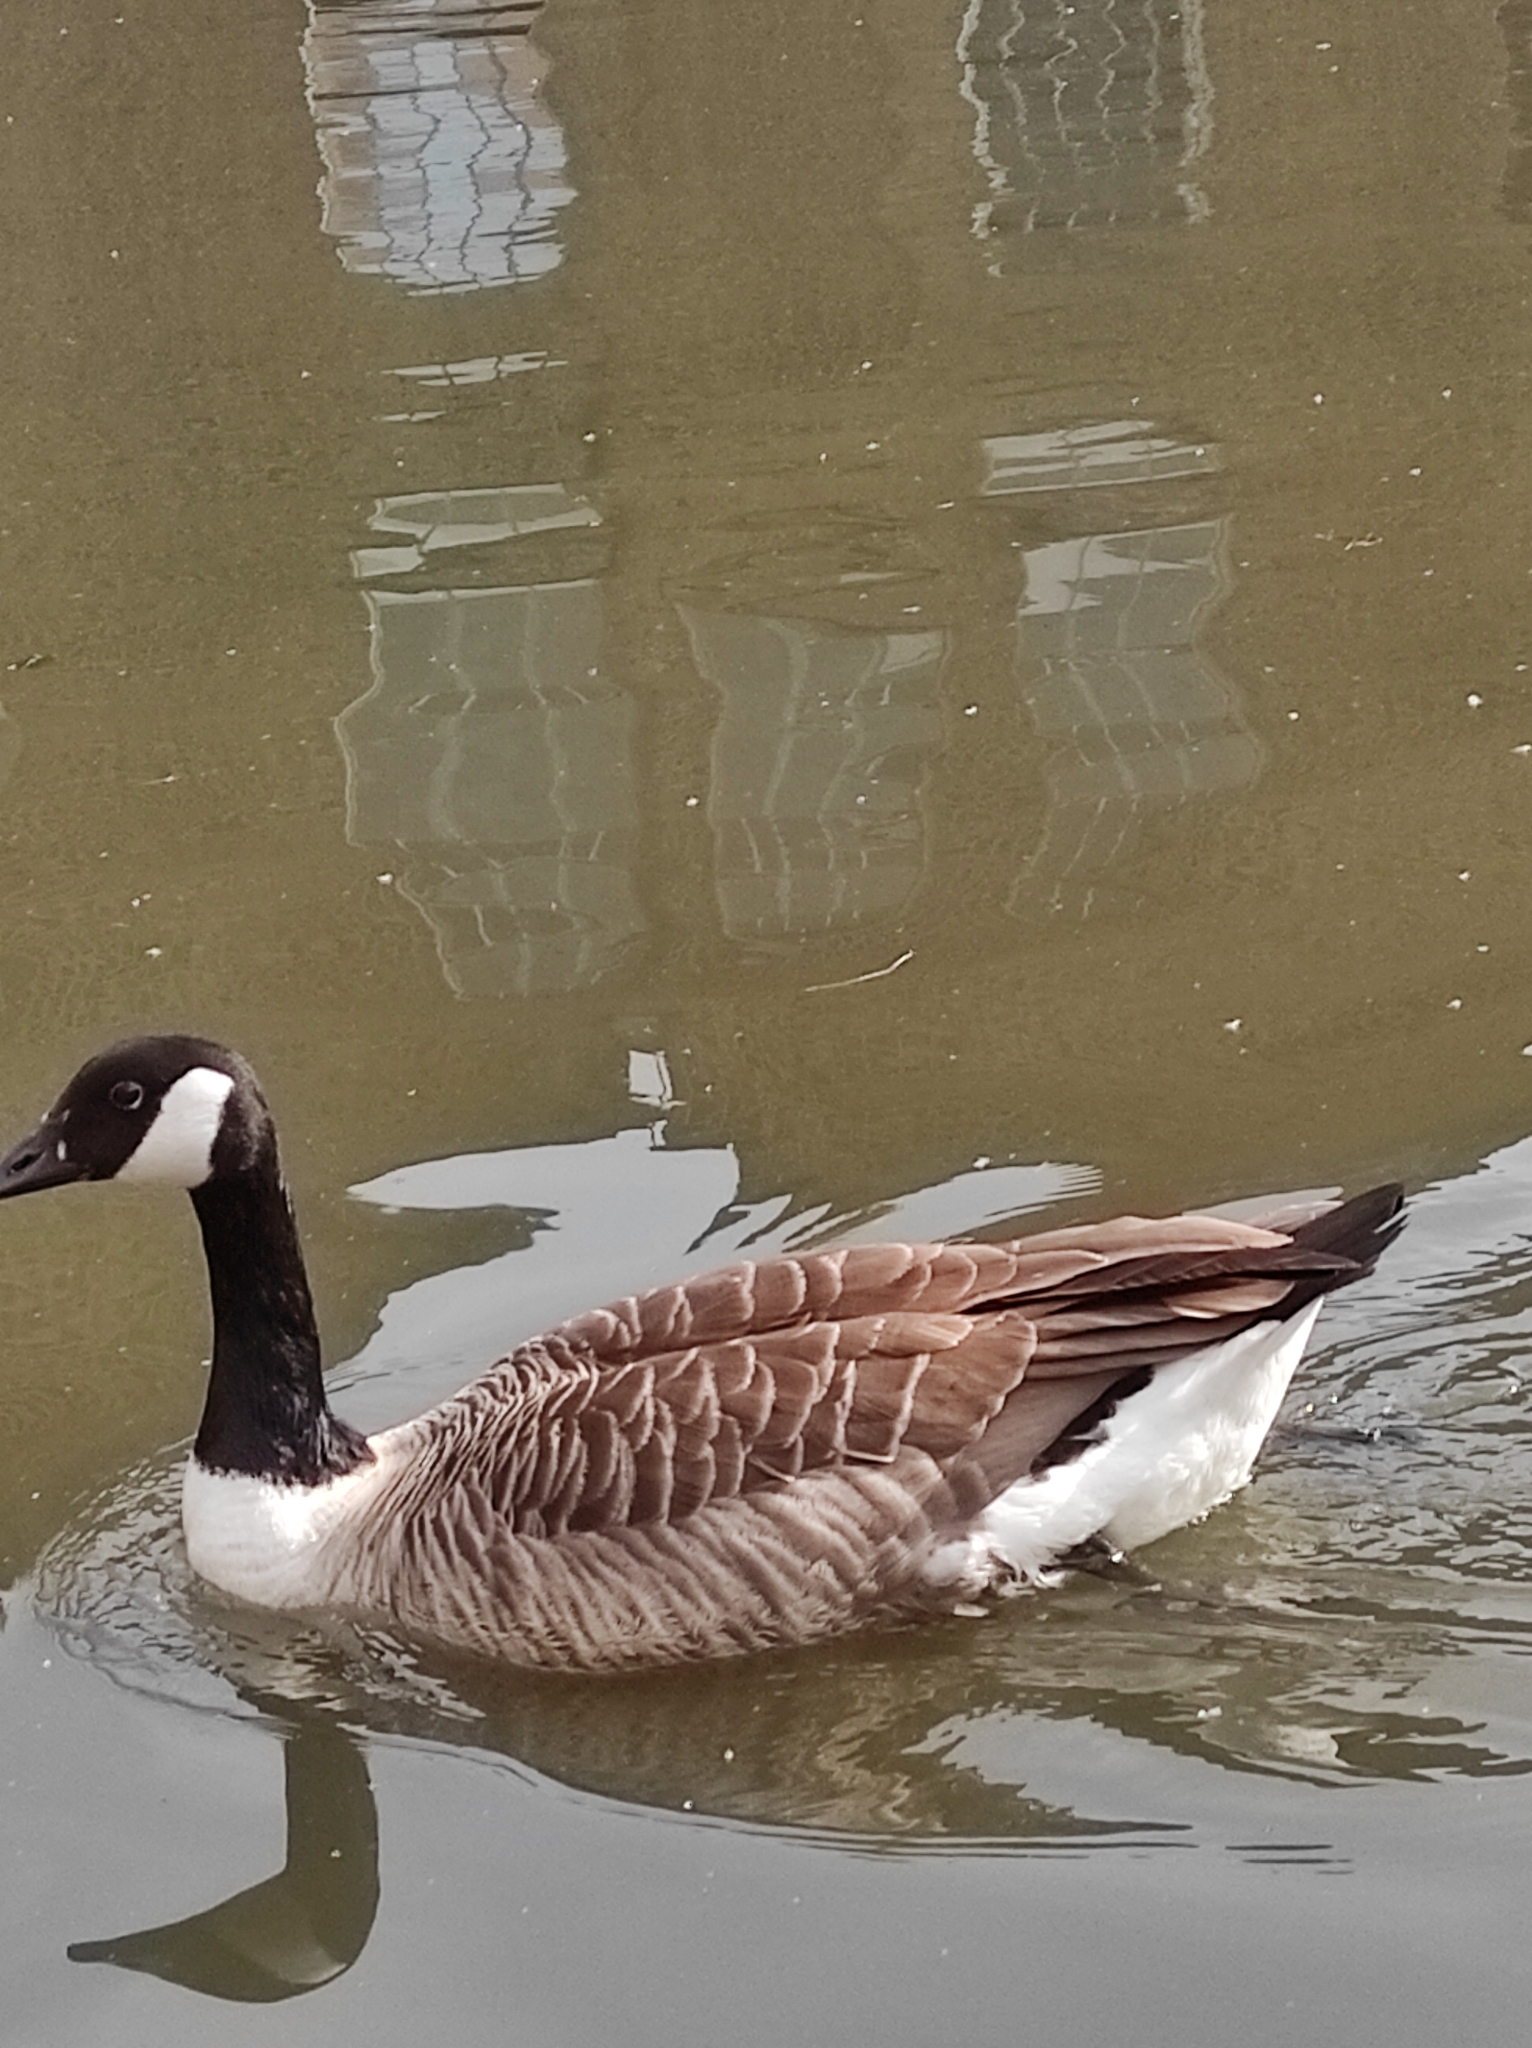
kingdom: Animalia
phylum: Chordata
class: Aves
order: Anseriformes
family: Anatidae
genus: Branta
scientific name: Branta canadensis
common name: Canada goose
